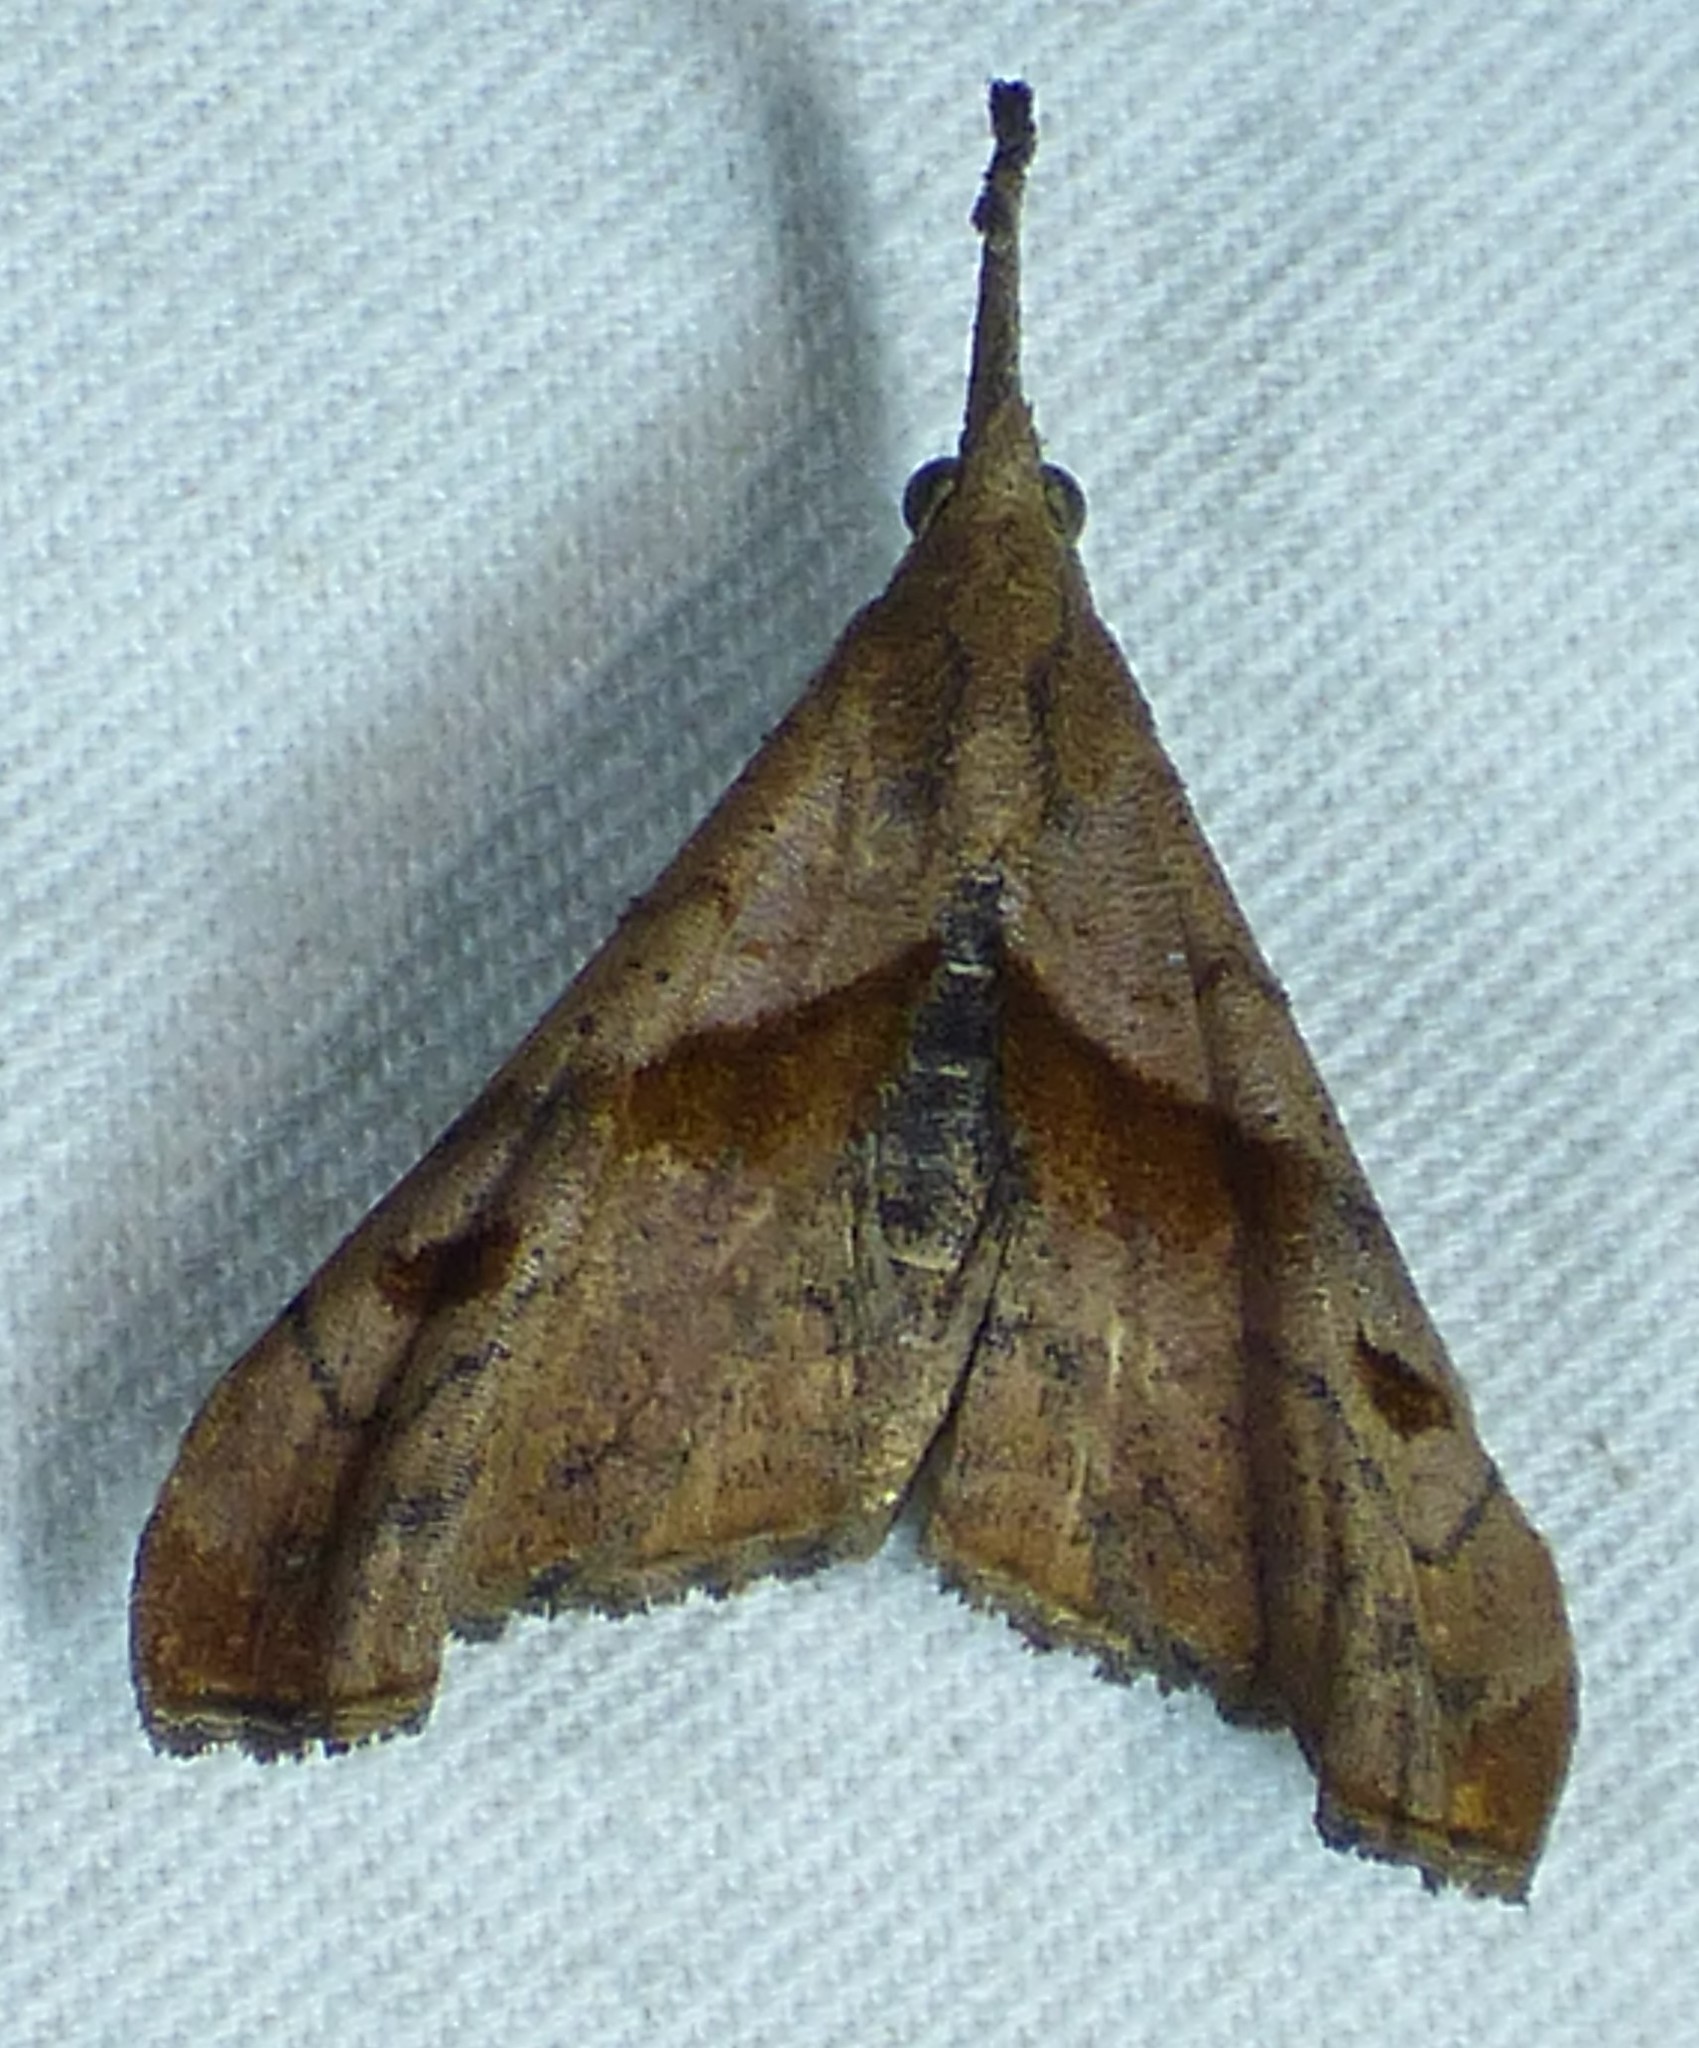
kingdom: Animalia
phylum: Arthropoda
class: Insecta
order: Lepidoptera
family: Erebidae
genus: Palthis
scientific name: Palthis angulalis
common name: Dark-spotted palthis moth
